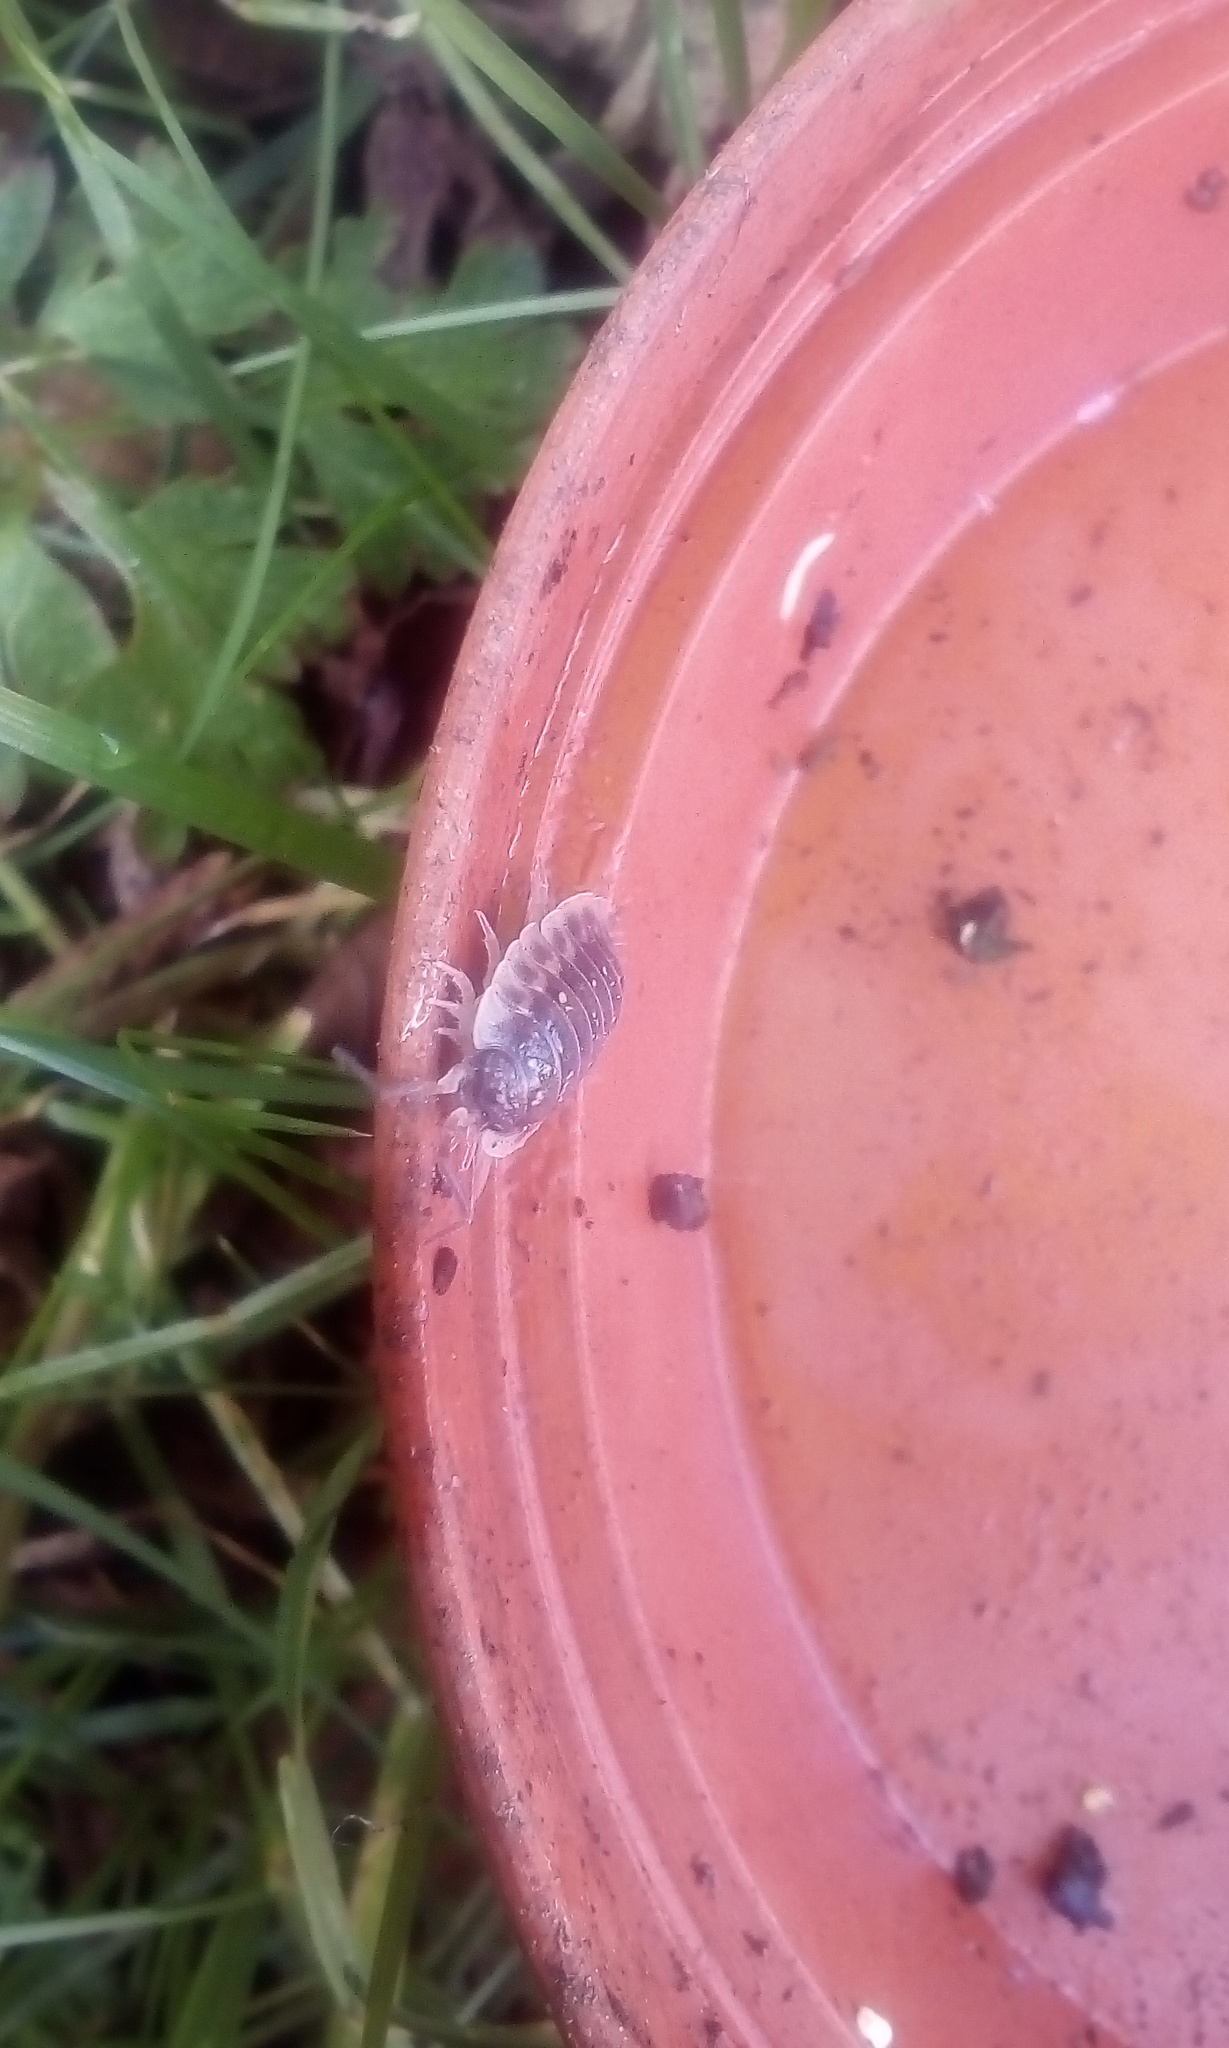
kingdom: Animalia
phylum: Arthropoda
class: Malacostraca
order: Isopoda
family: Oniscidae
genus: Oniscus
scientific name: Oniscus asellus
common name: Common shiny woodlouse
